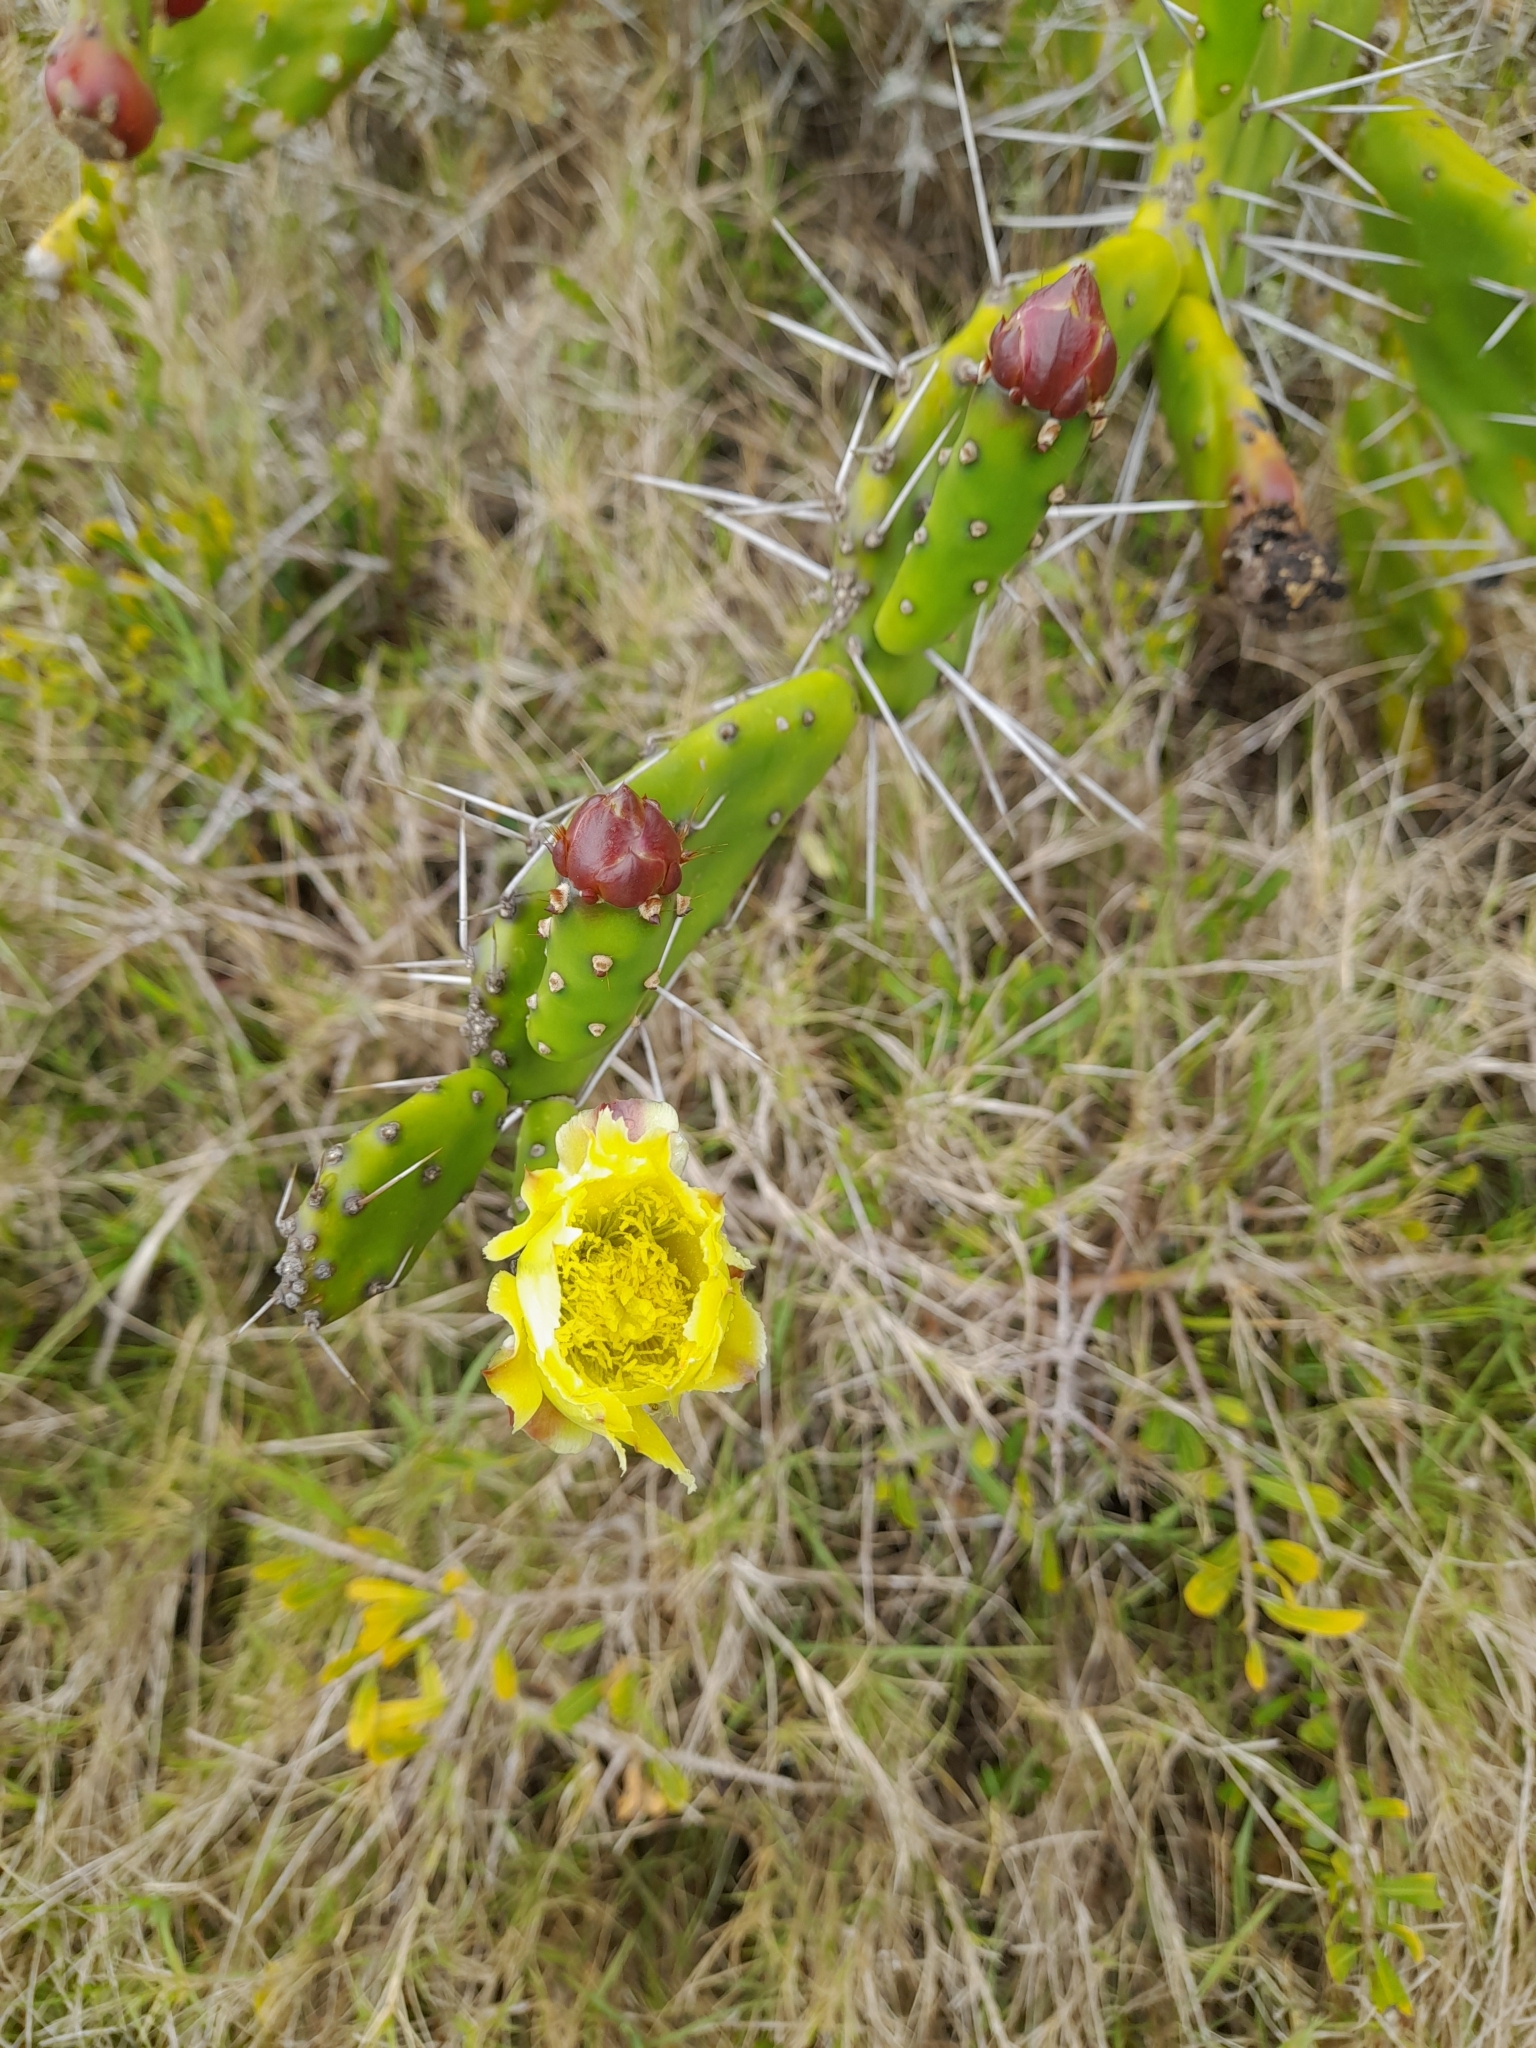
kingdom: Plantae
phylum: Tracheophyta
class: Magnoliopsida
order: Caryophyllales
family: Cactaceae
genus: Opuntia
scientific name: Opuntia arechavaletae
